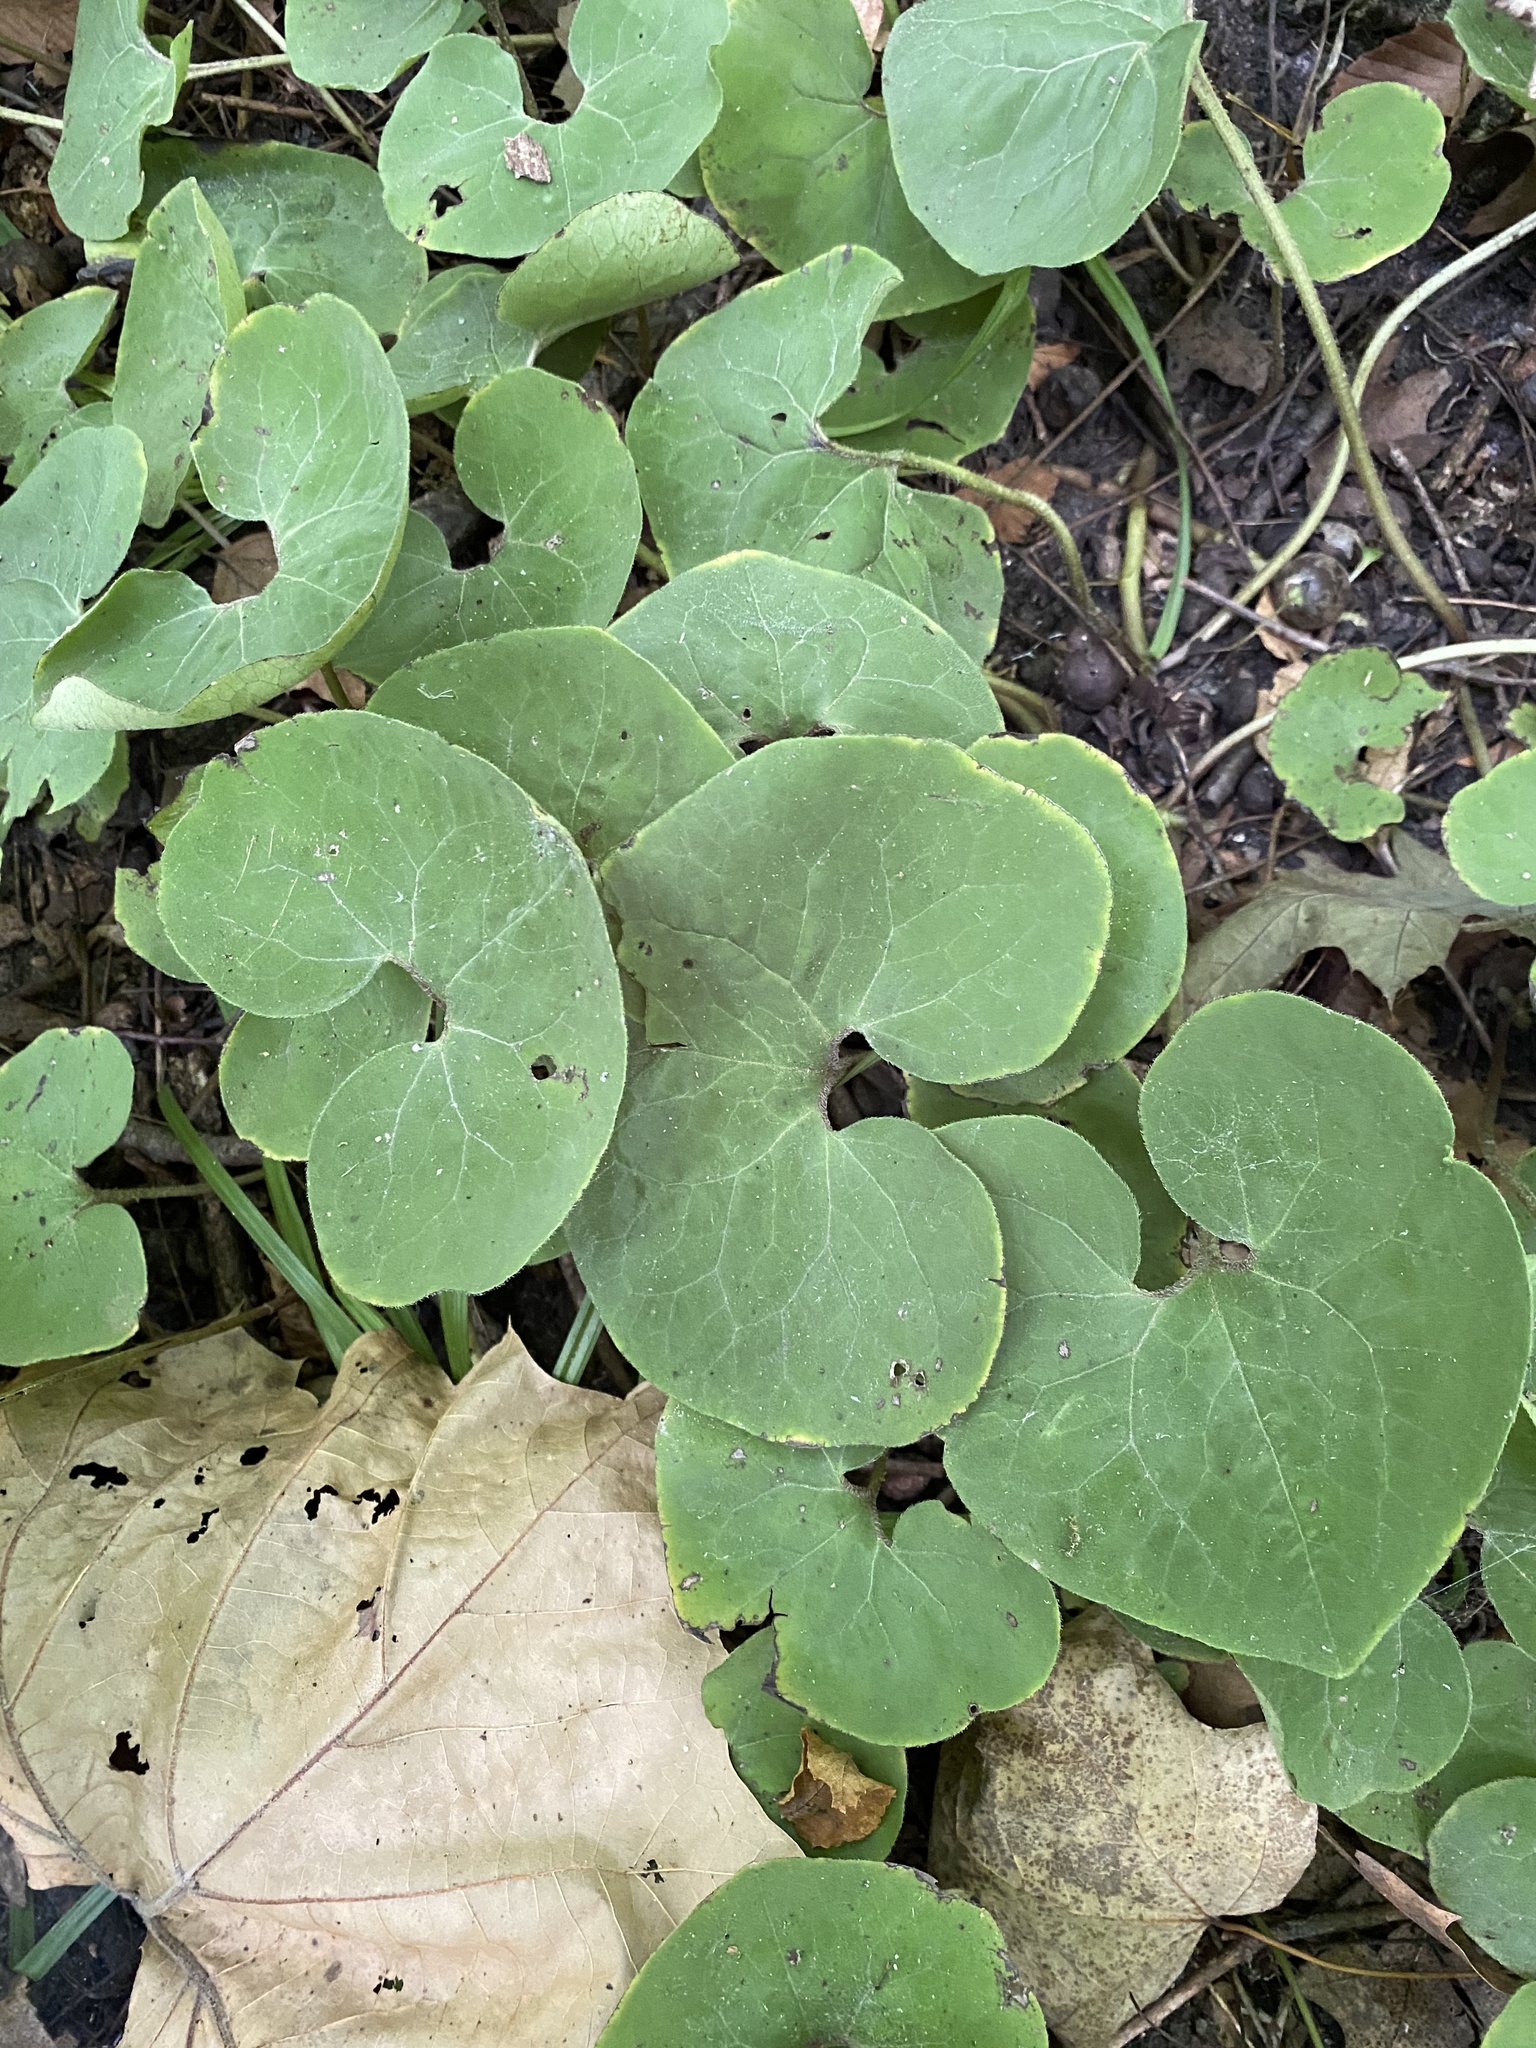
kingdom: Plantae
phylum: Tracheophyta
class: Magnoliopsida
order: Piperales
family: Aristolochiaceae
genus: Asarum
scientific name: Asarum canadense
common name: Wild ginger
